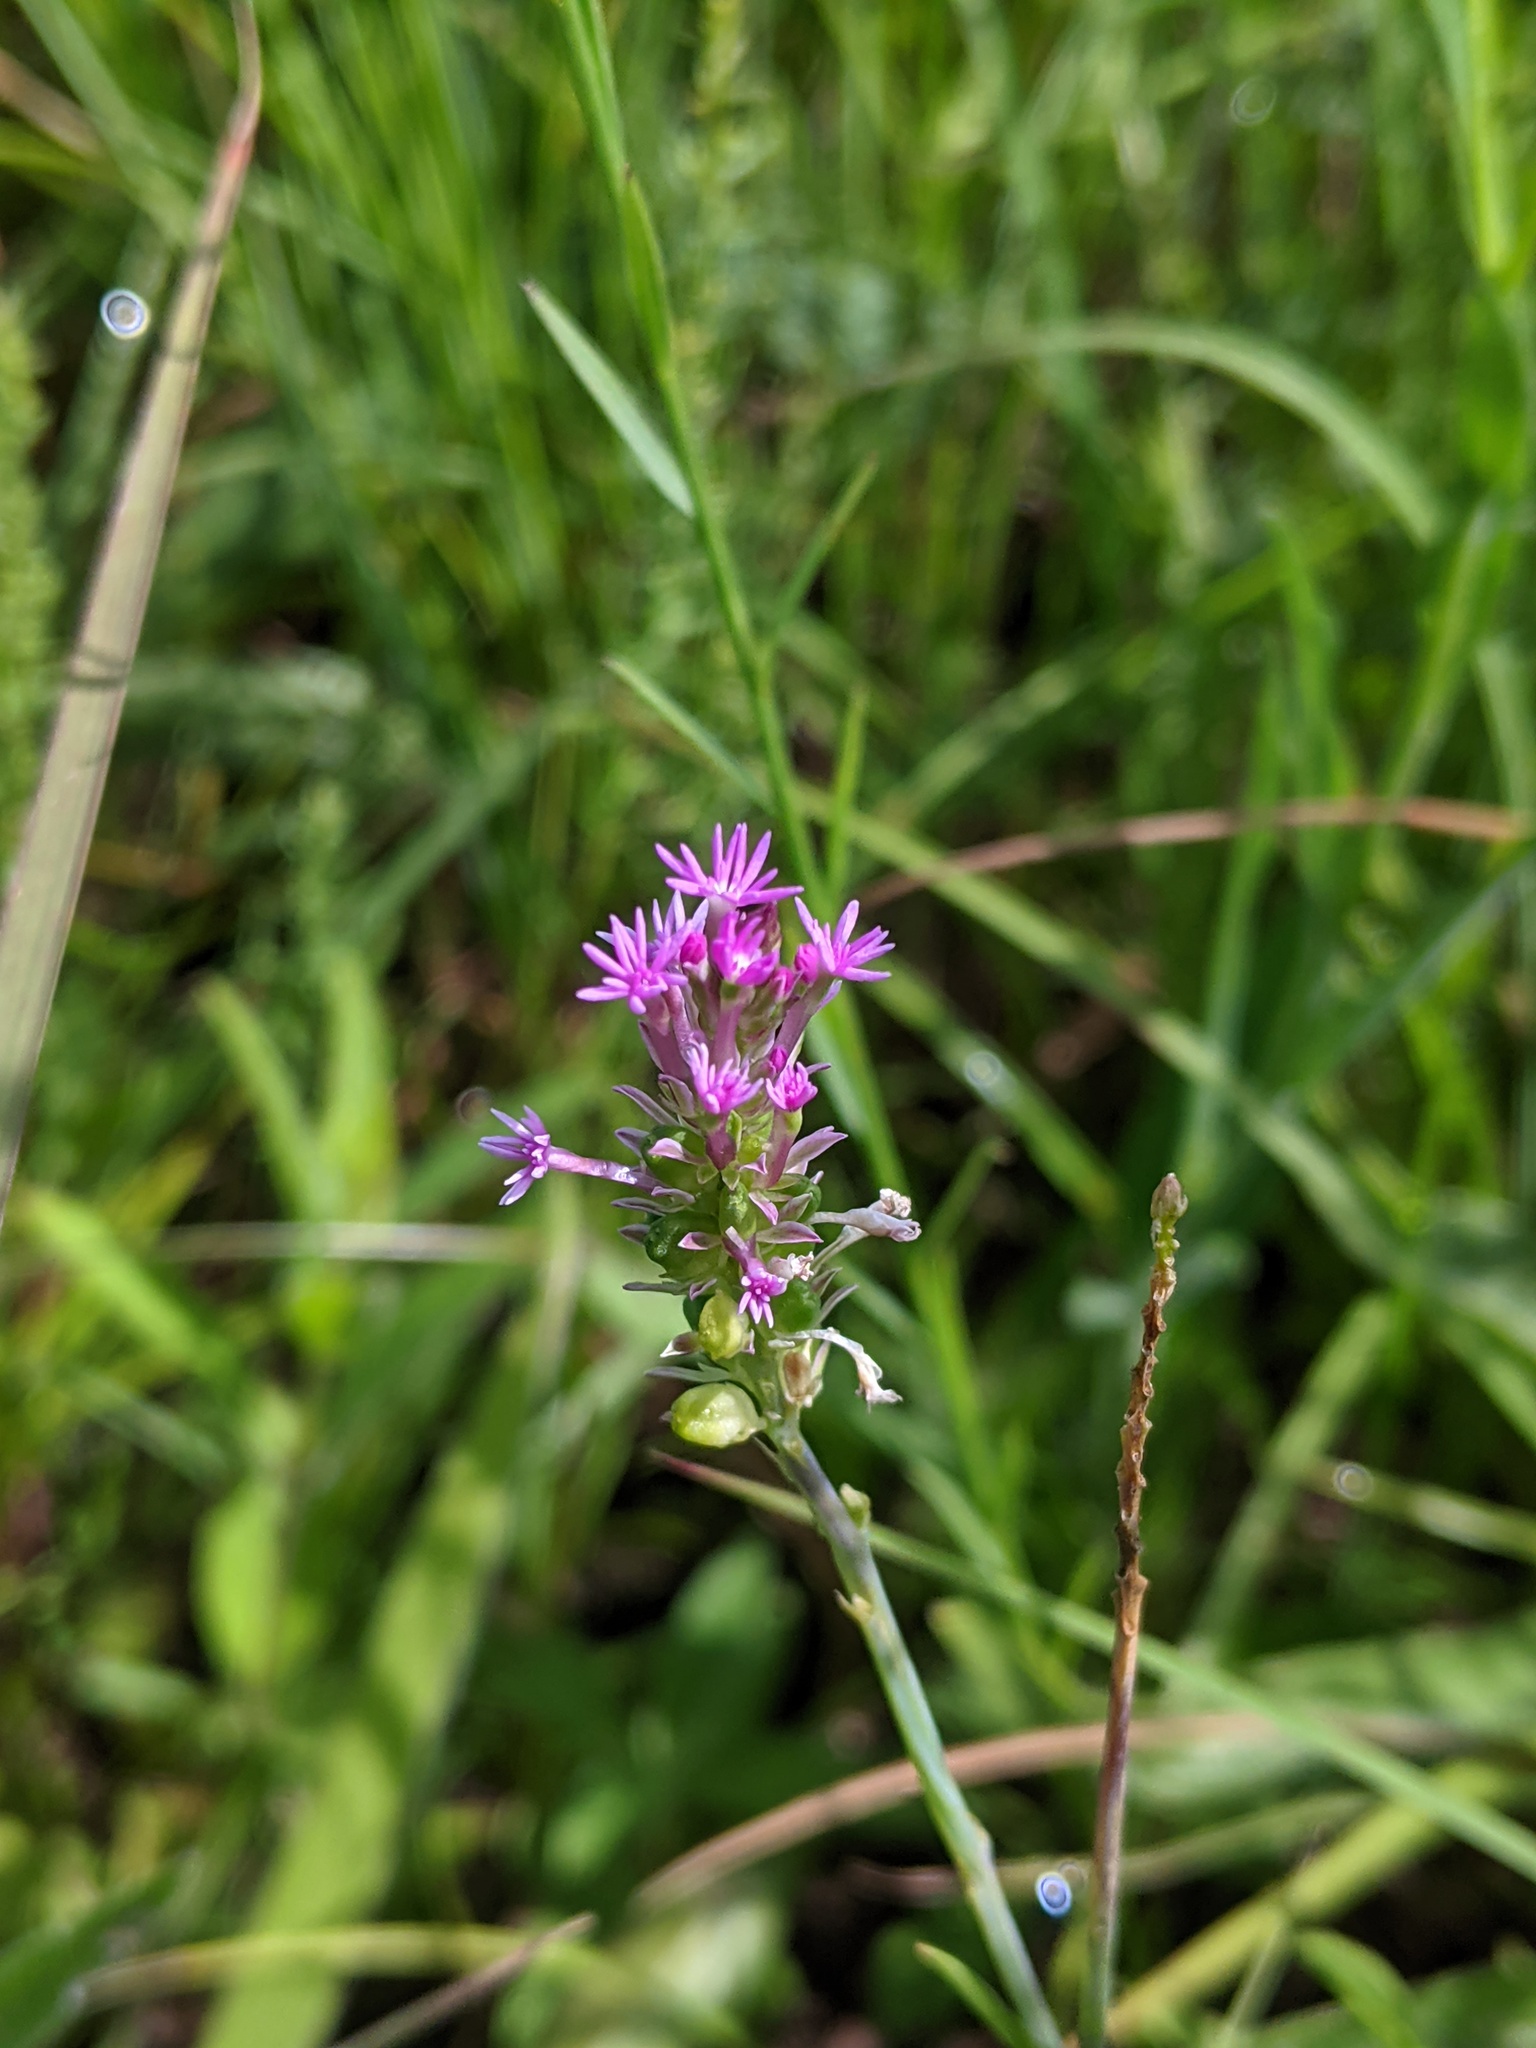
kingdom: Plantae
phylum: Tracheophyta
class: Magnoliopsida
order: Fabales
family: Polygalaceae
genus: Polygala
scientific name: Polygala incarnata
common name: Pink milkwort
